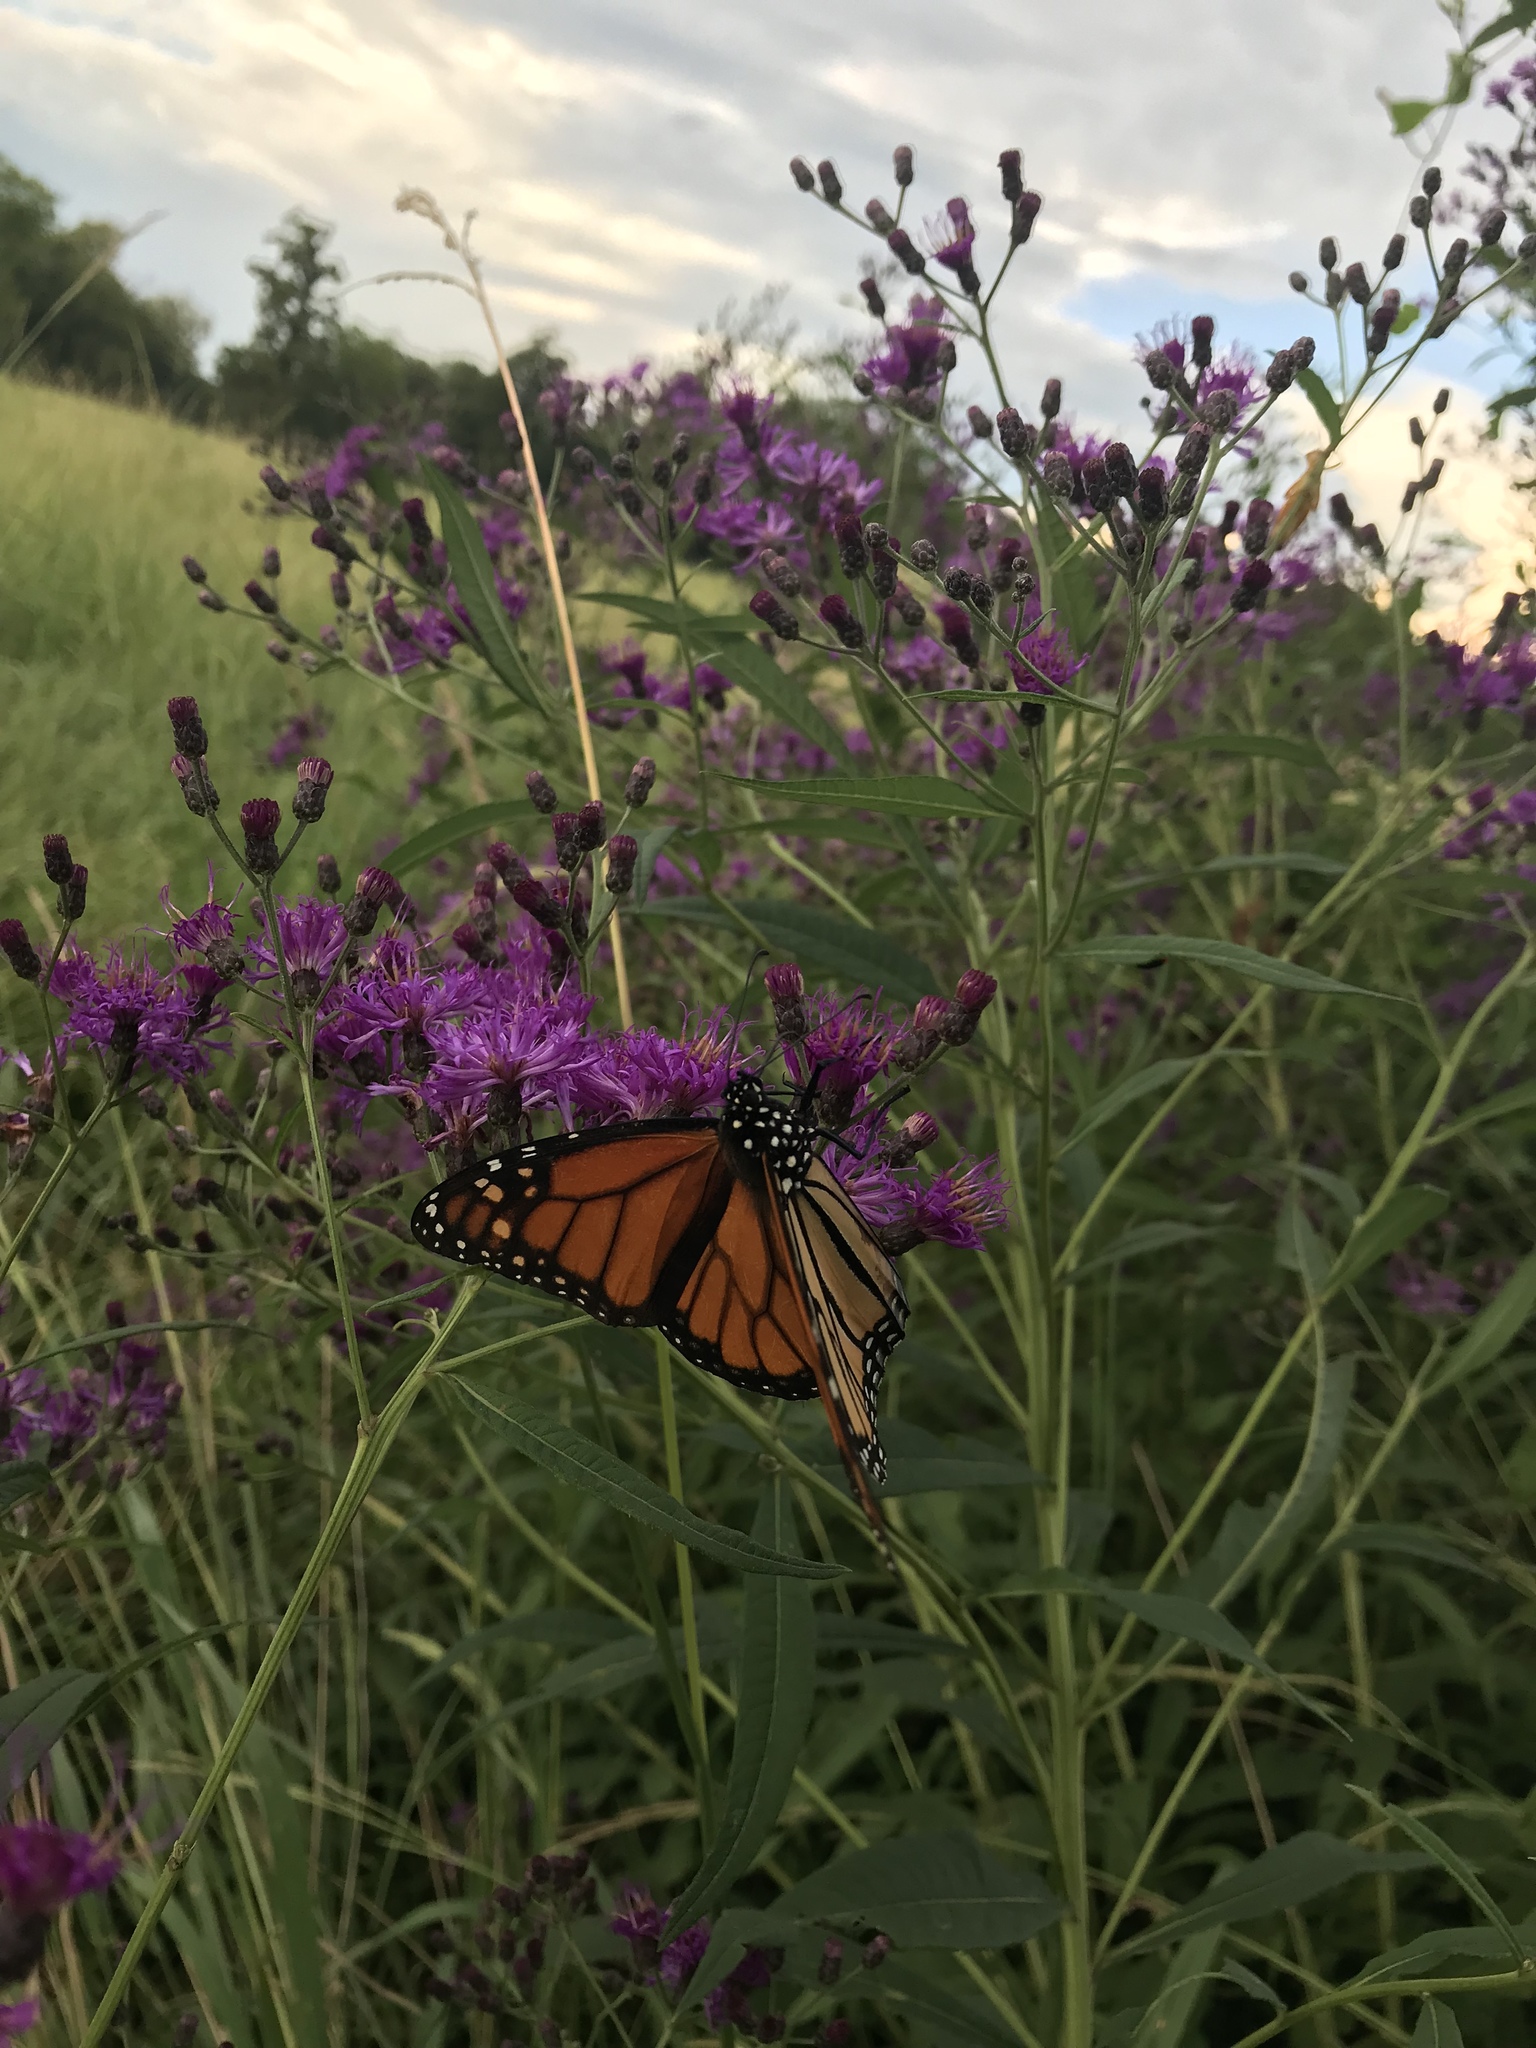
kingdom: Animalia
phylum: Arthropoda
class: Insecta
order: Lepidoptera
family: Nymphalidae
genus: Danaus
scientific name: Danaus plexippus
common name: Monarch
